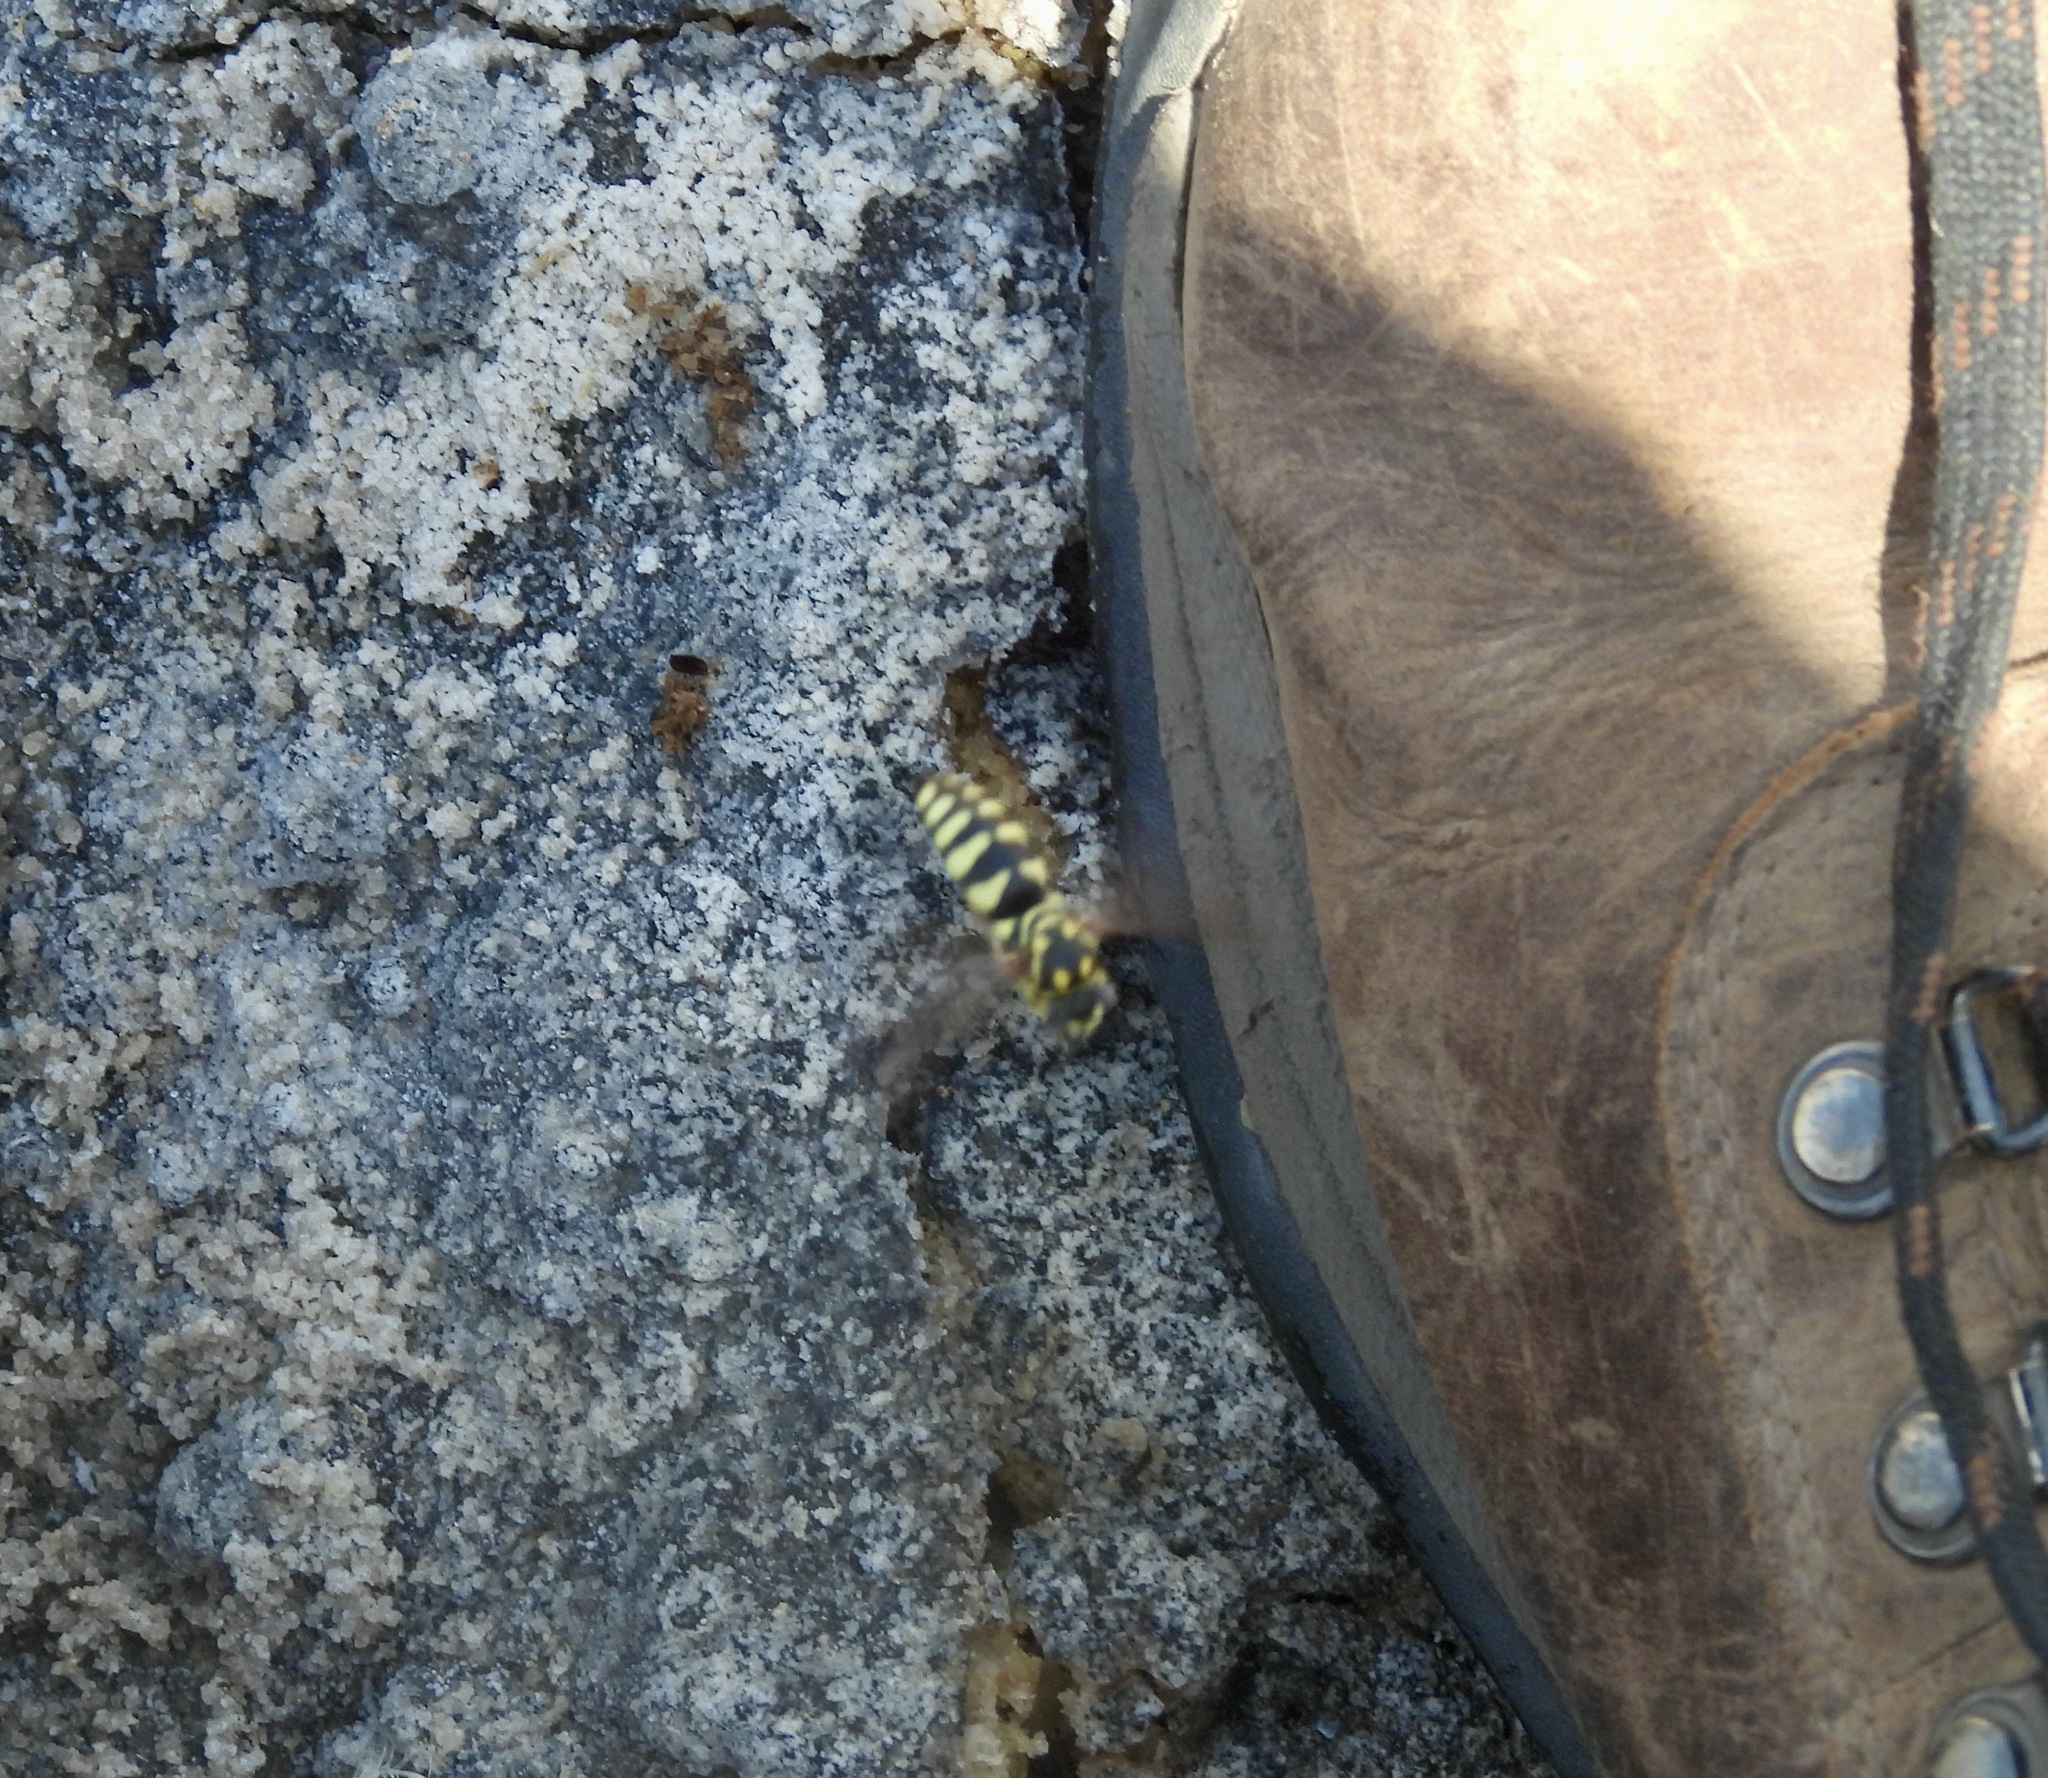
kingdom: Animalia
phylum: Arthropoda
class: Insecta
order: Hymenoptera
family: Crabronidae
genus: Bicyrtes
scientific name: Bicyrtes viduatus
